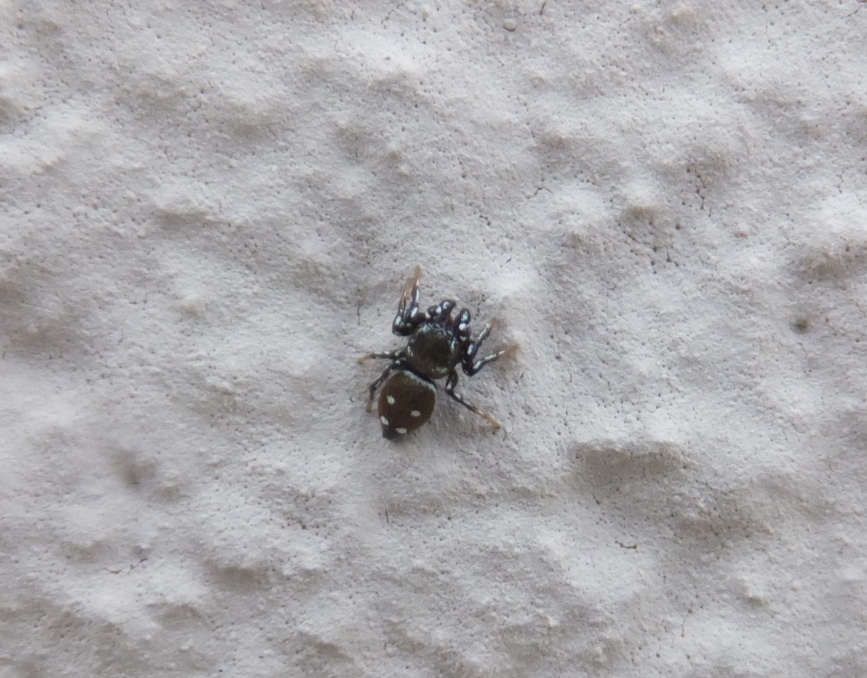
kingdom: Animalia
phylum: Arthropoda
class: Arachnida
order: Araneae
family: Salticidae
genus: Heliophanus
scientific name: Heliophanus kochii
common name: Sun jumping spider
